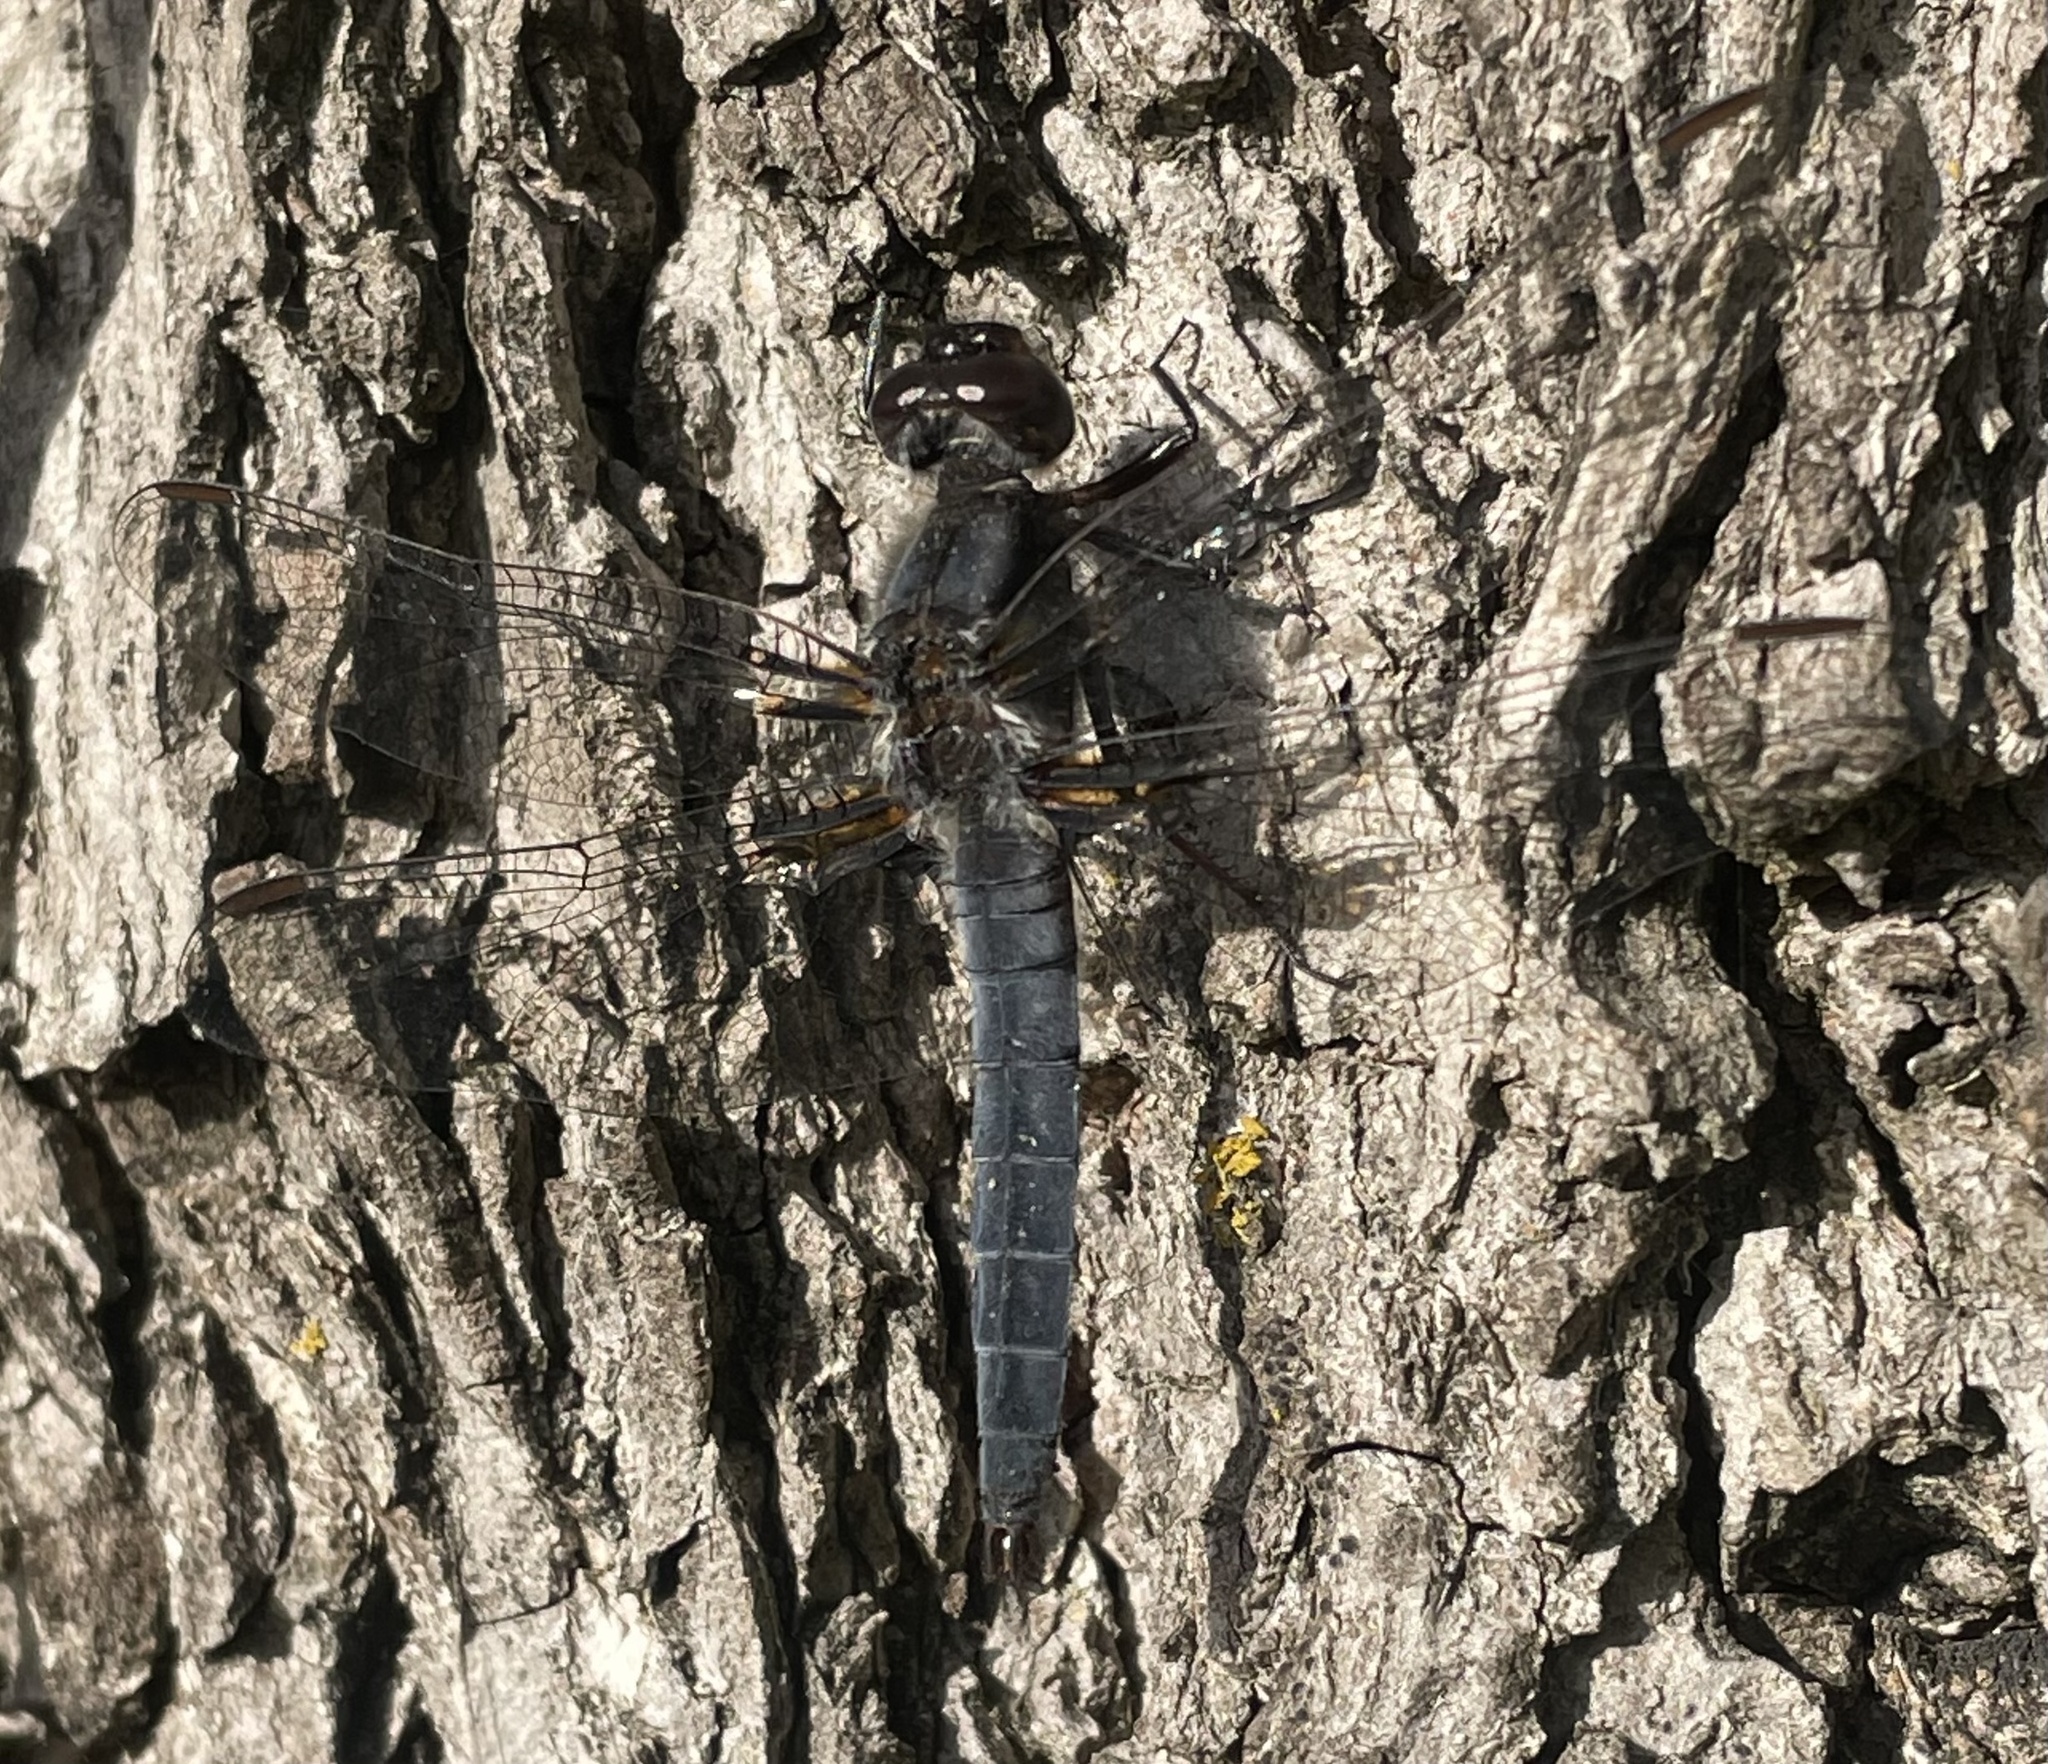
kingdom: Animalia
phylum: Arthropoda
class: Insecta
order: Odonata
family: Libellulidae
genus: Ladona
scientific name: Ladona deplanata
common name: Blue corporal
